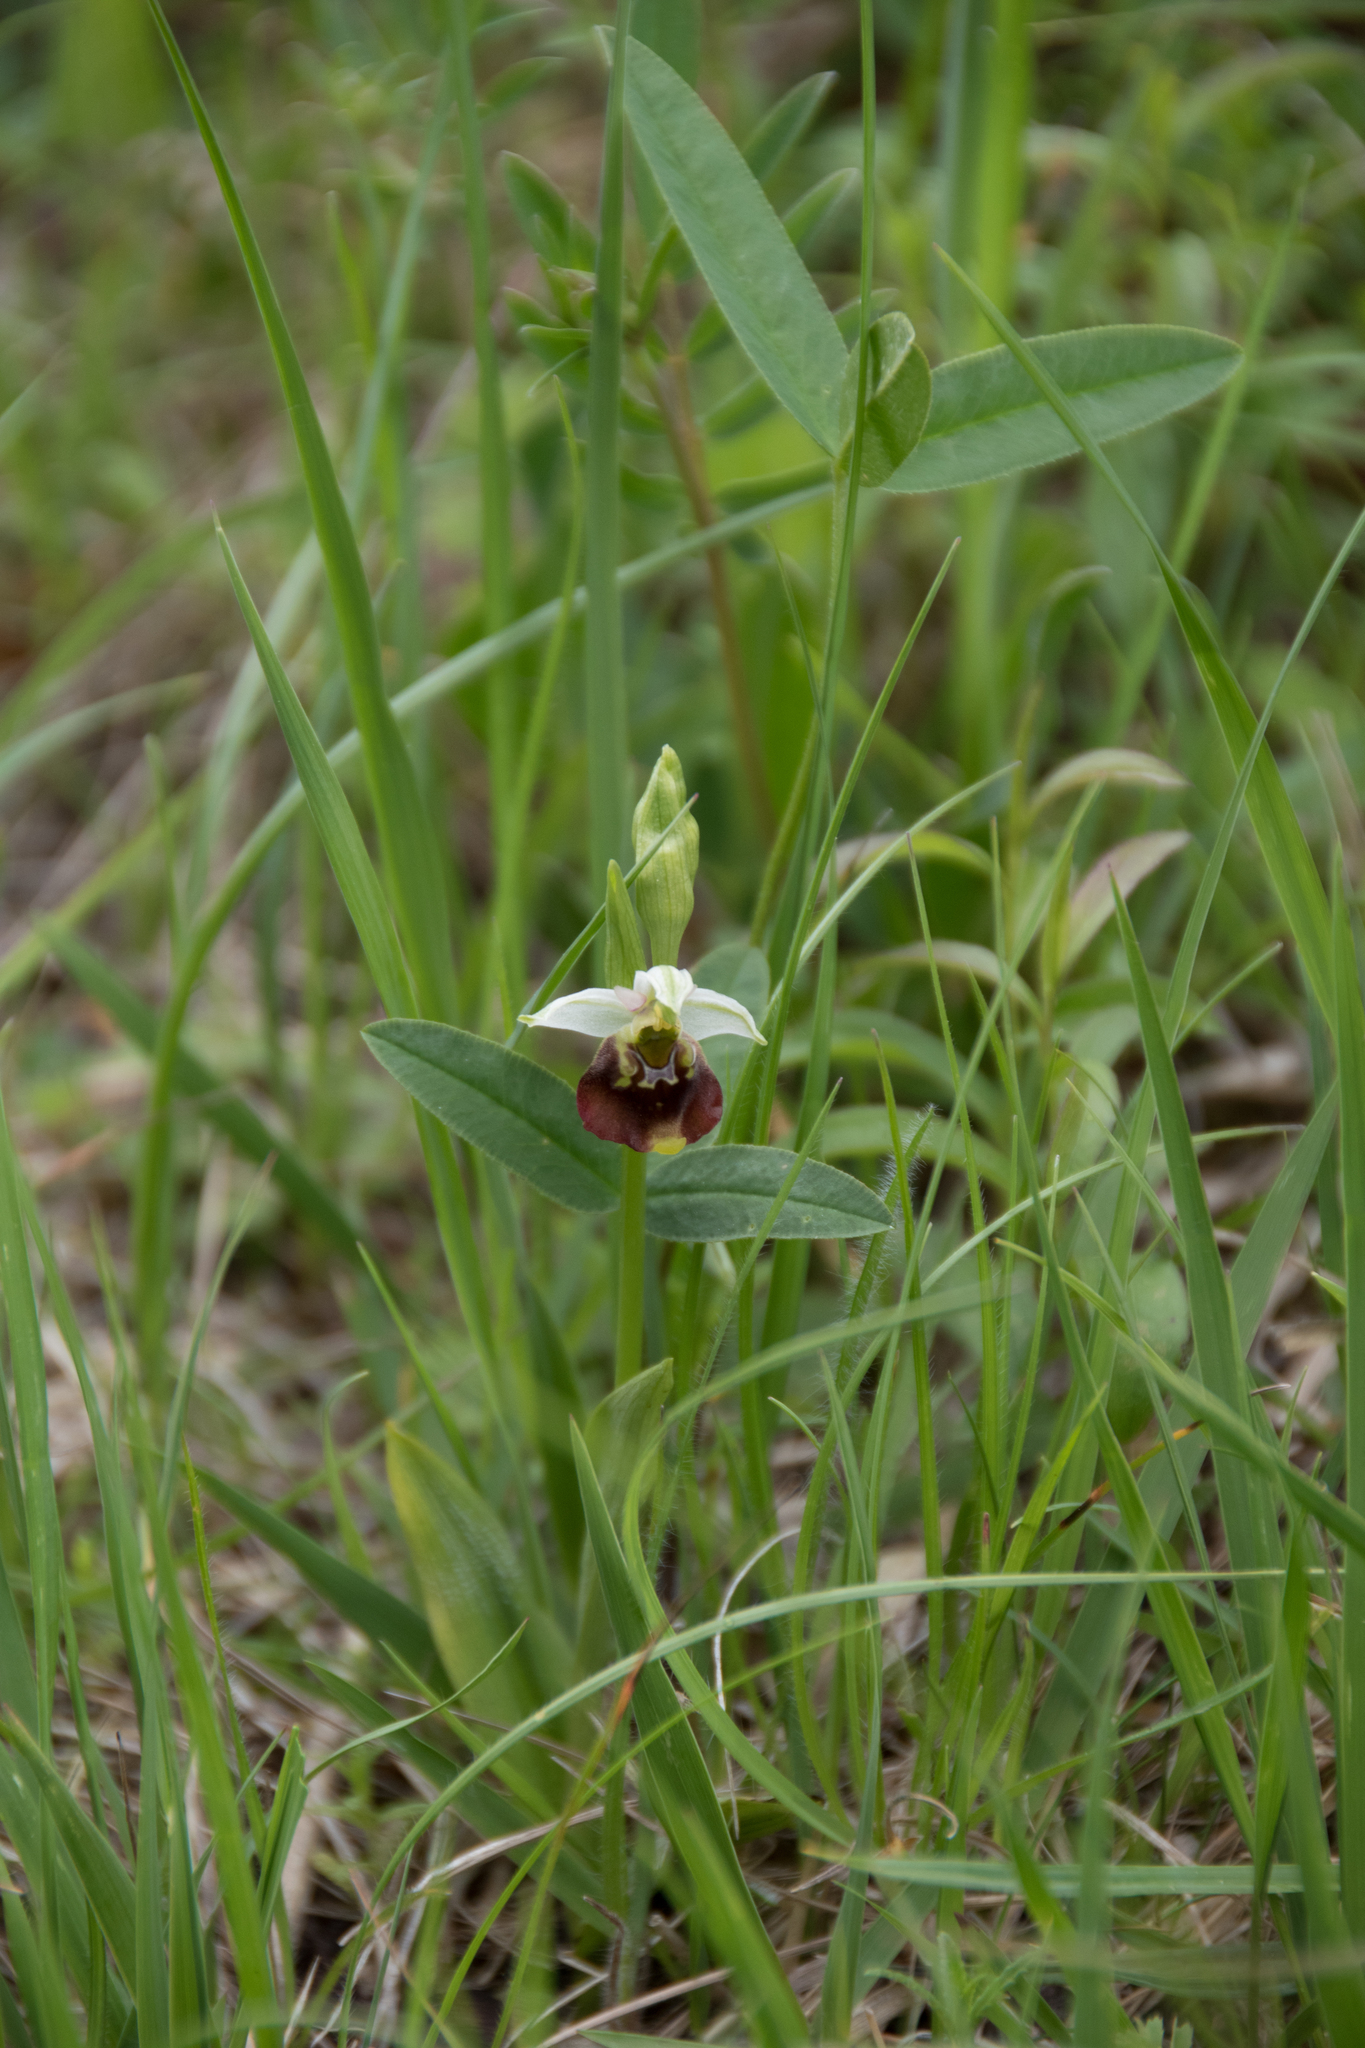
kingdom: Plantae
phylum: Tracheophyta
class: Liliopsida
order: Asparagales
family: Orchidaceae
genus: Ophrys
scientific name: Ophrys holosericea
